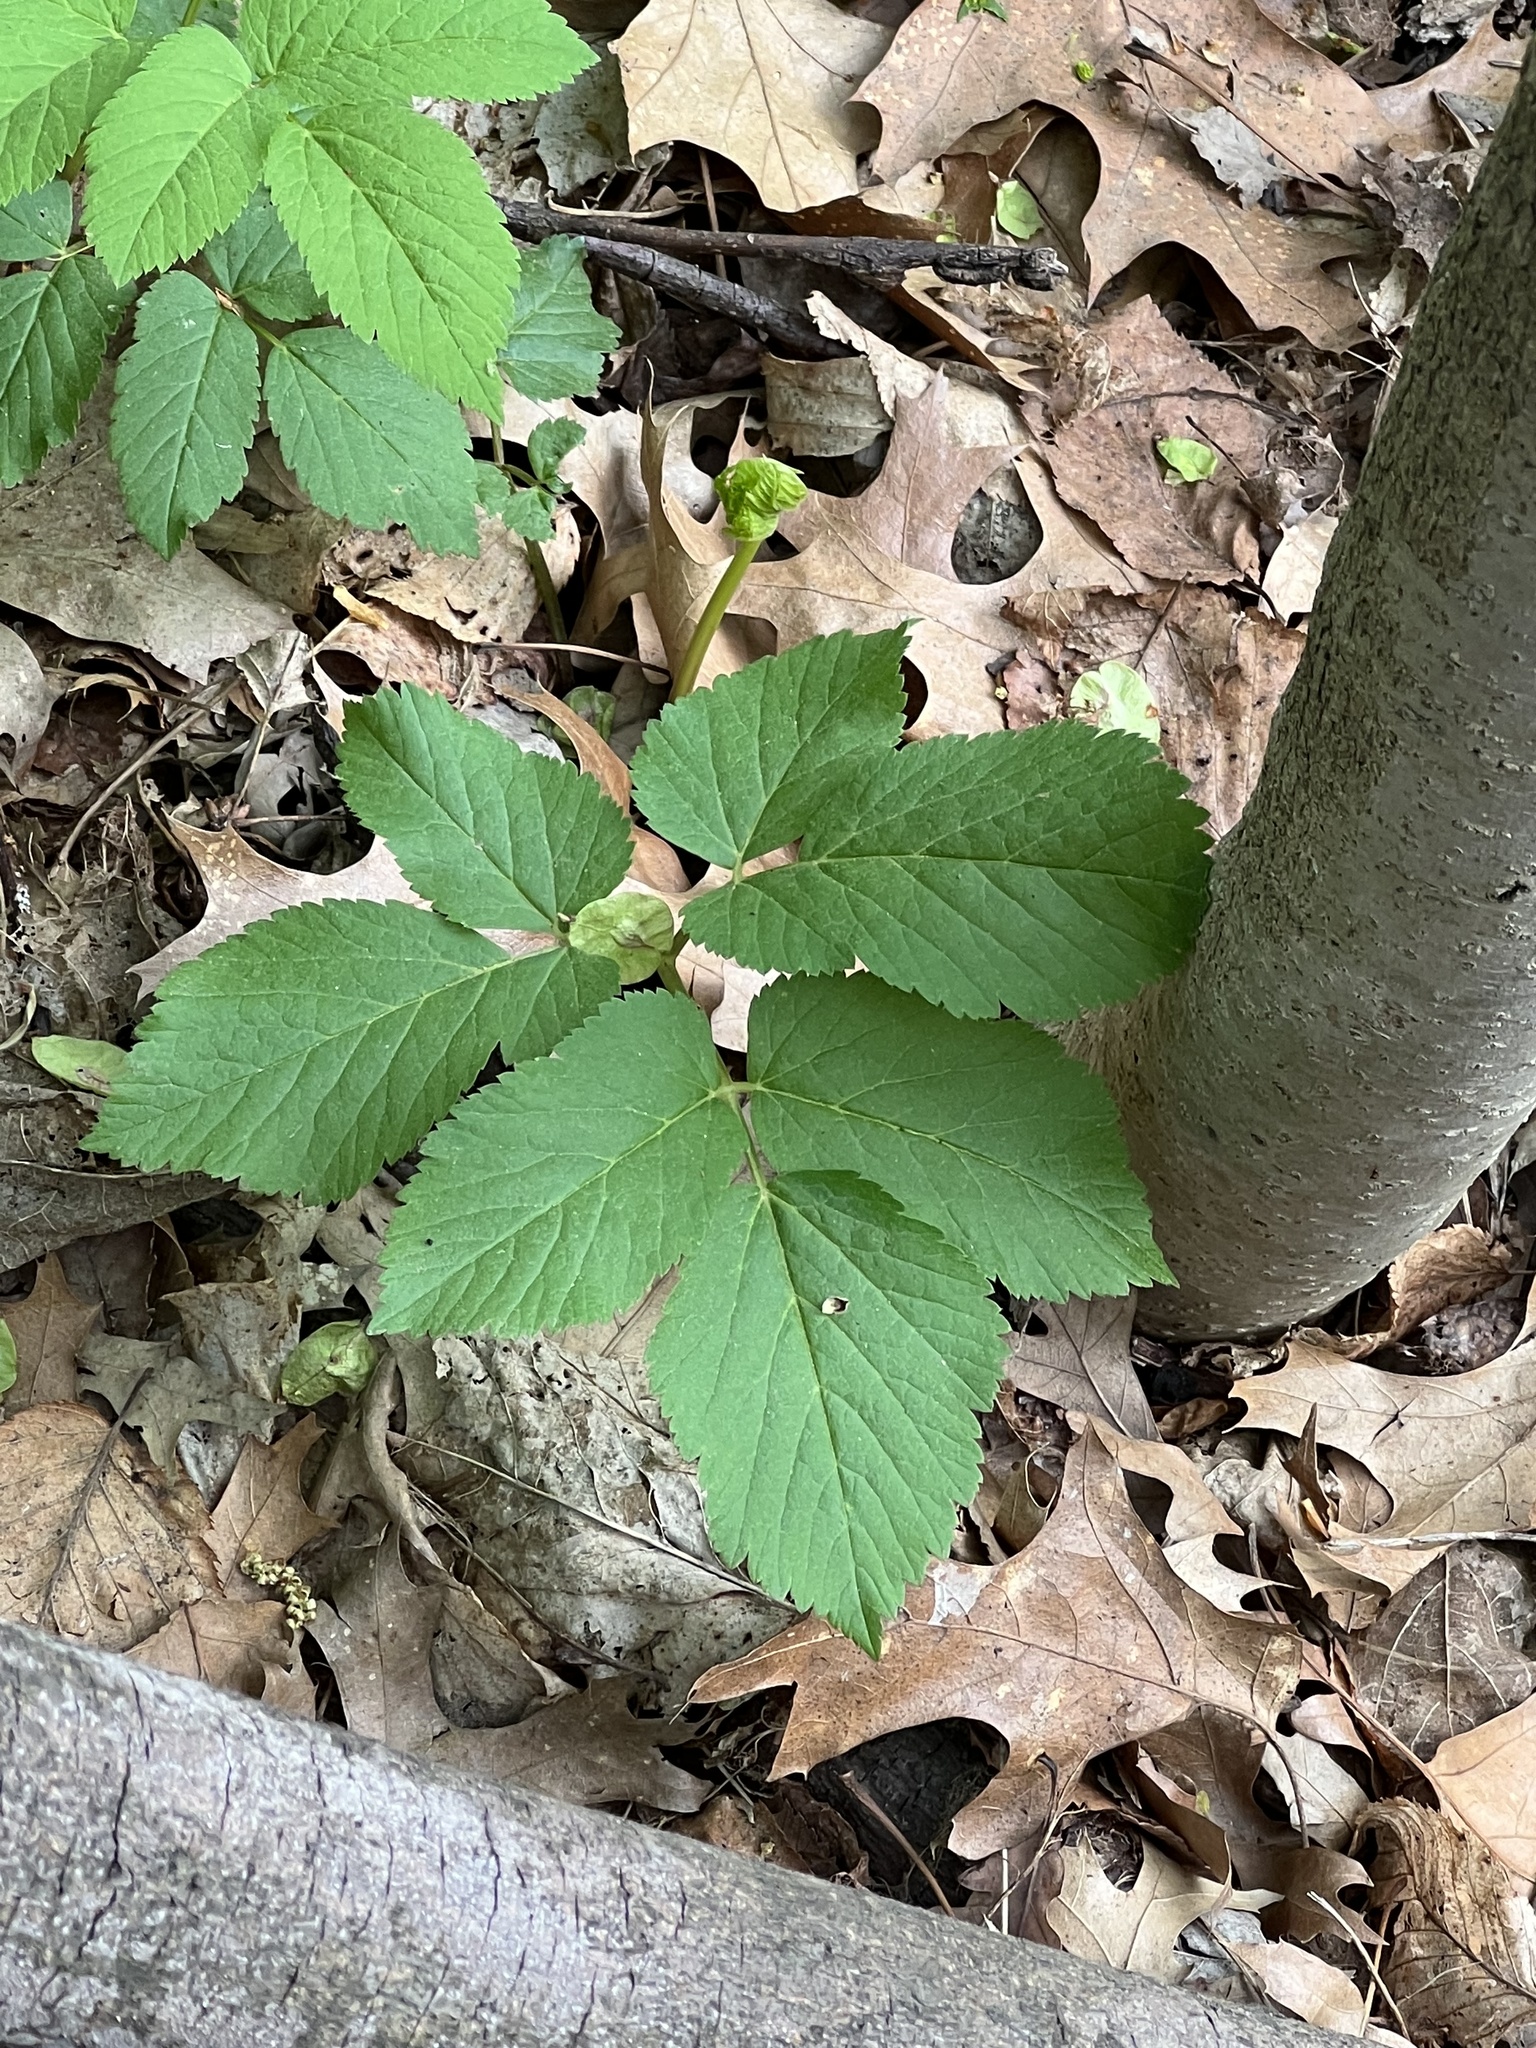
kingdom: Plantae
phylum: Tracheophyta
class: Magnoliopsida
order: Apiales
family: Apiaceae
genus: Aegopodium
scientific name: Aegopodium podagraria
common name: Ground-elder
